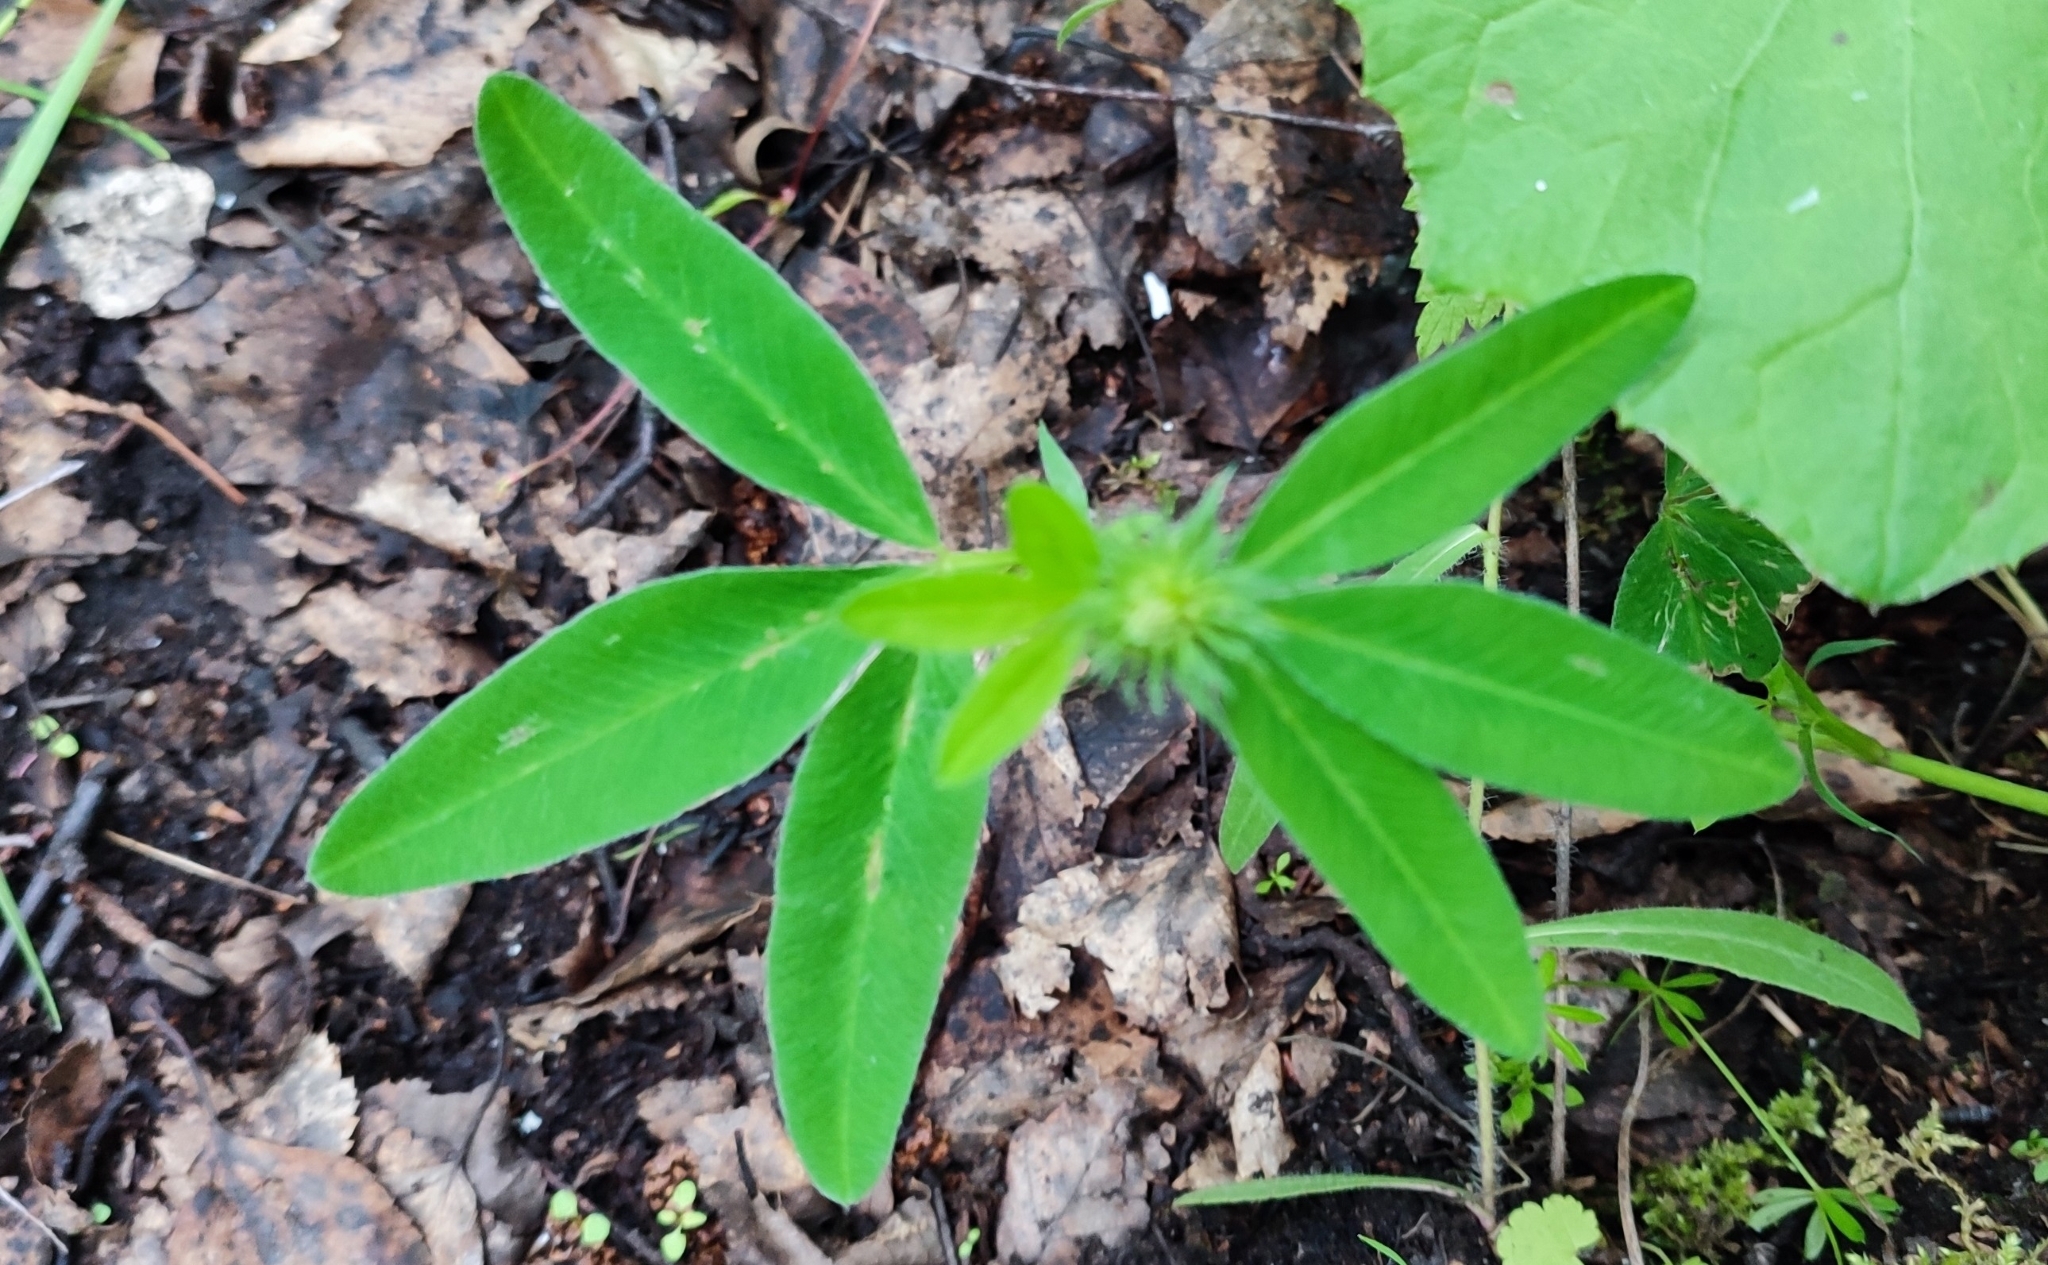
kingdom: Plantae
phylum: Tracheophyta
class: Magnoliopsida
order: Fabales
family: Fabaceae
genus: Trifolium
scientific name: Trifolium medium
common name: Zigzag clover
